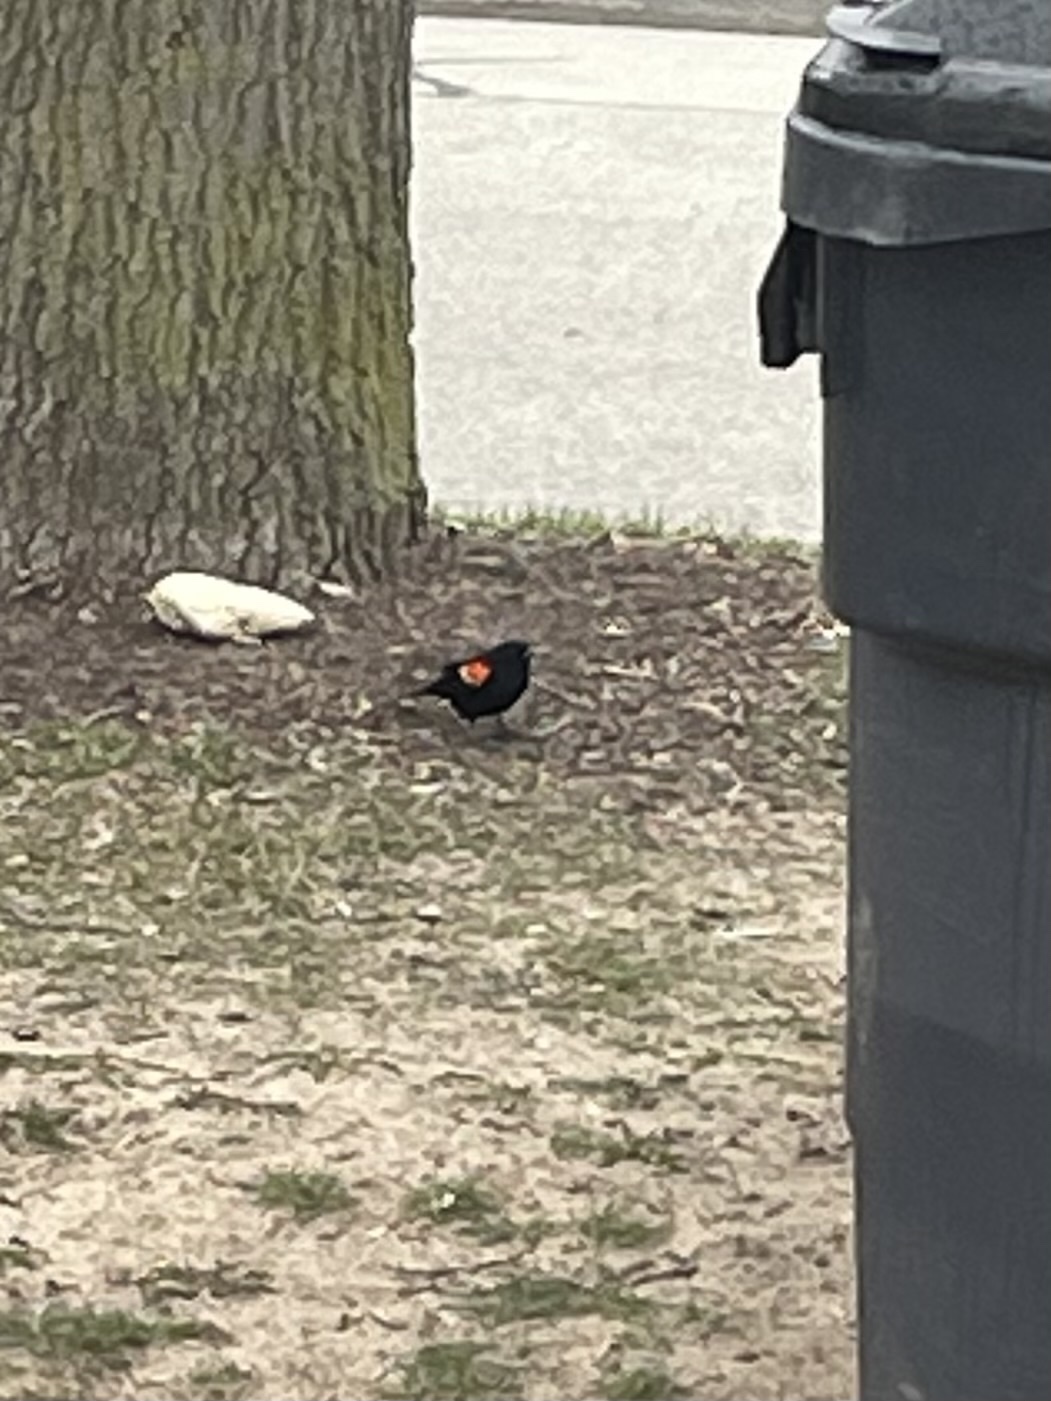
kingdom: Animalia
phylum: Chordata
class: Aves
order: Passeriformes
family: Icteridae
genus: Agelaius
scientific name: Agelaius phoeniceus
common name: Red-winged blackbird
